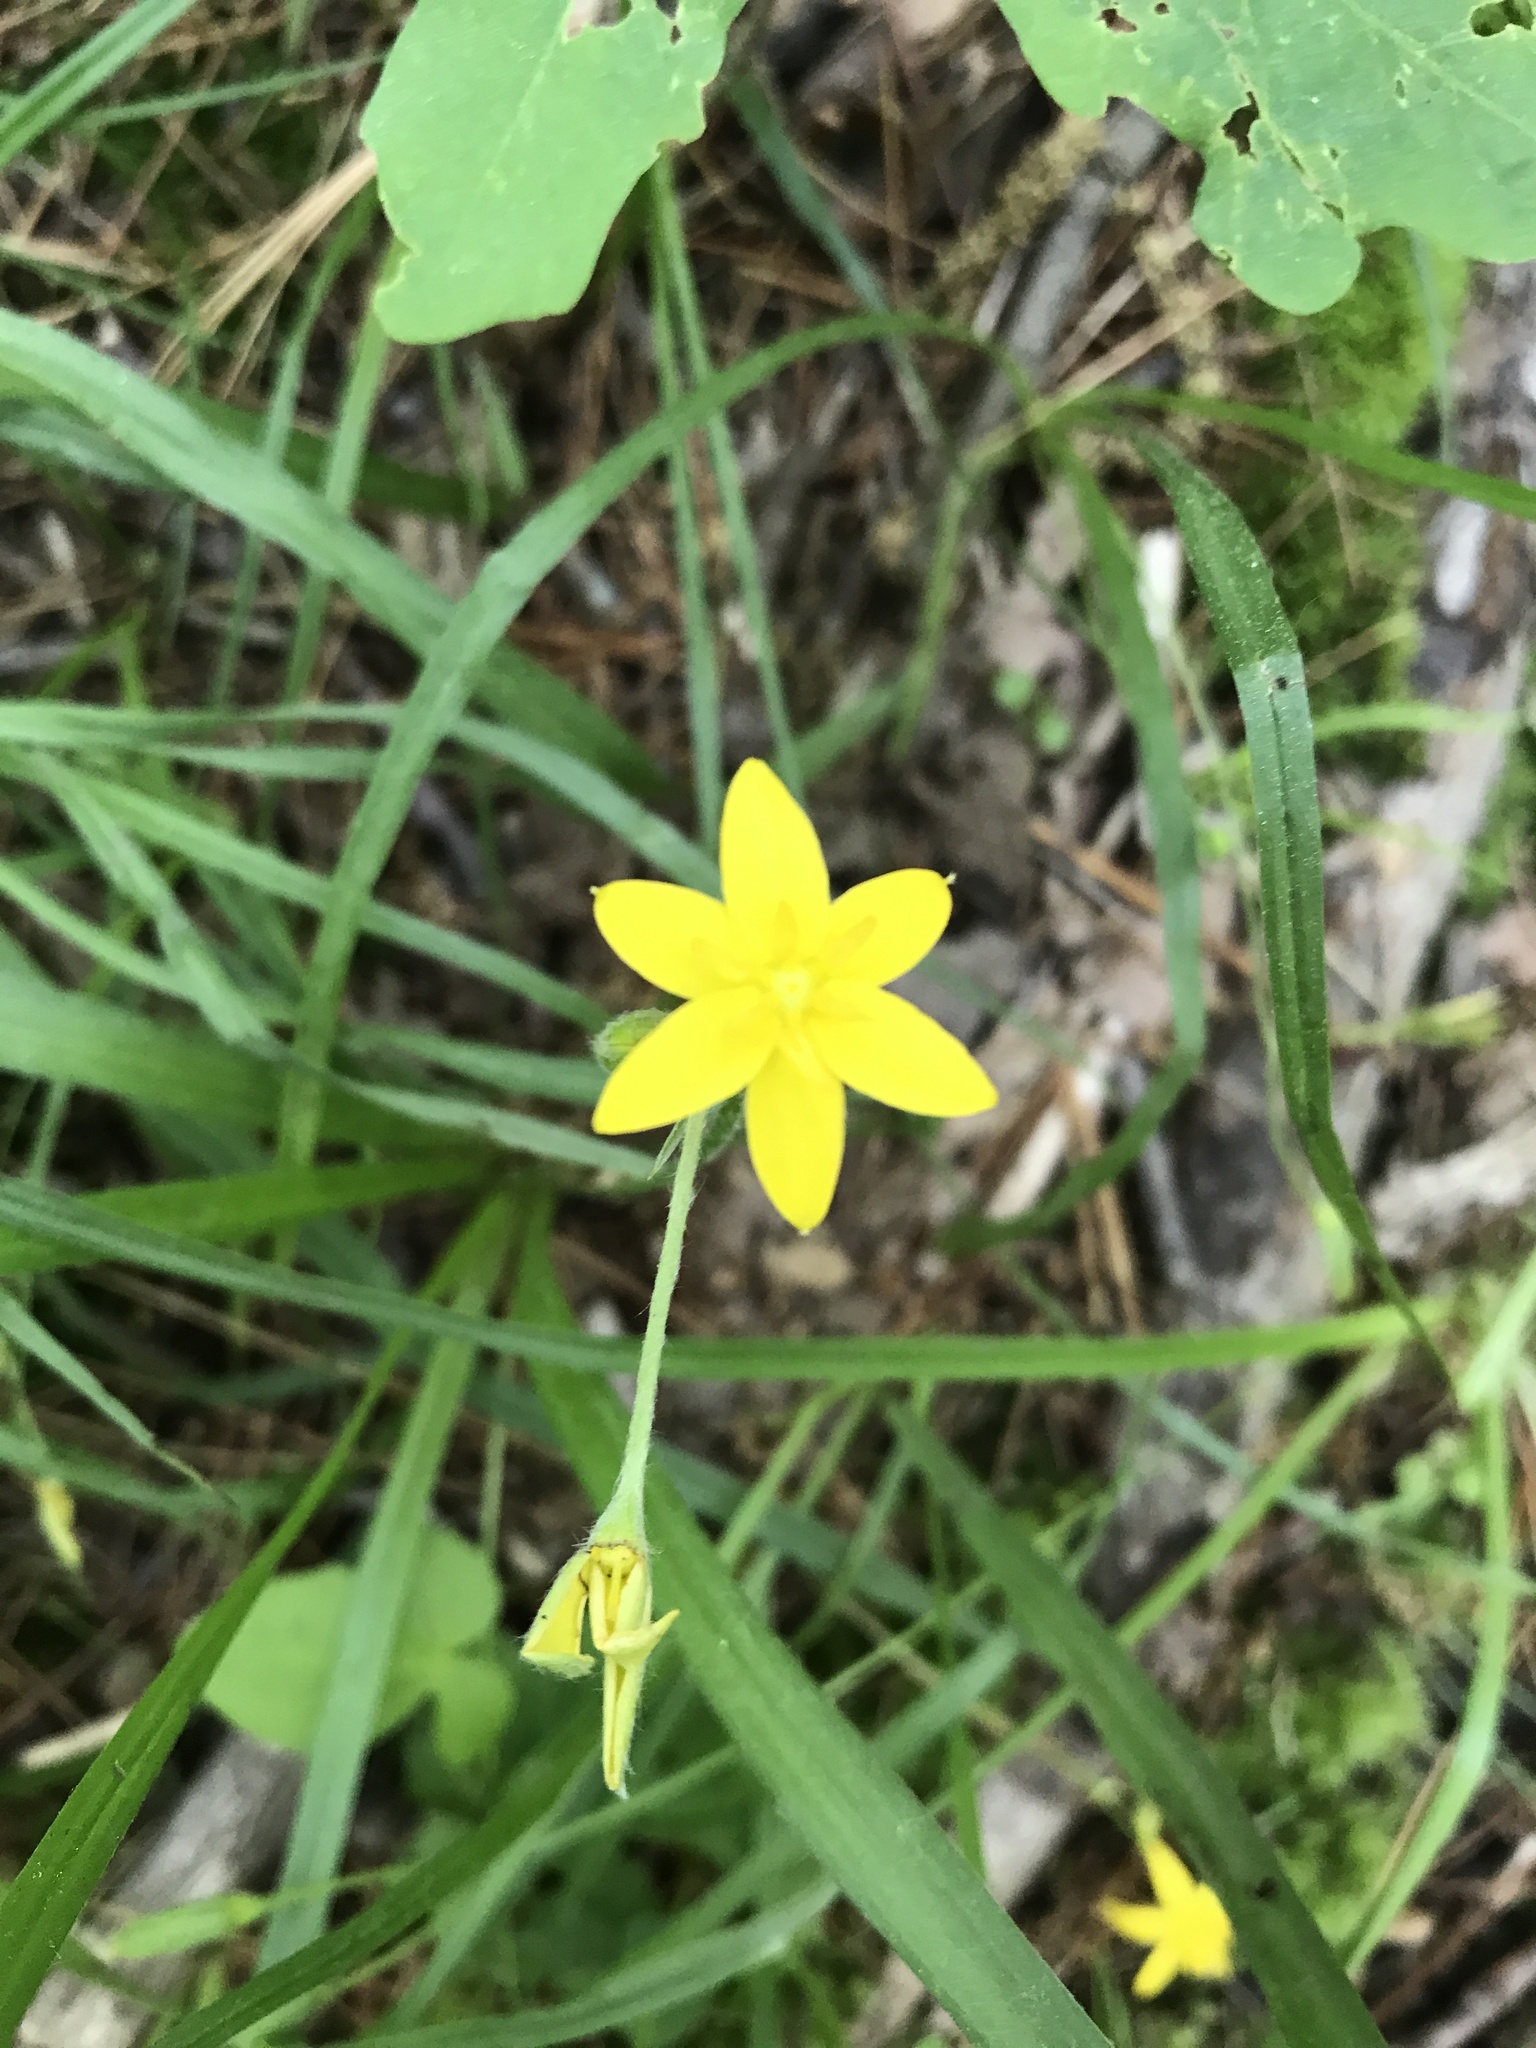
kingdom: Plantae
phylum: Tracheophyta
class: Liliopsida
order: Asparagales
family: Hypoxidaceae
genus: Hypoxis
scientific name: Hypoxis hirsuta
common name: Common goldstar
